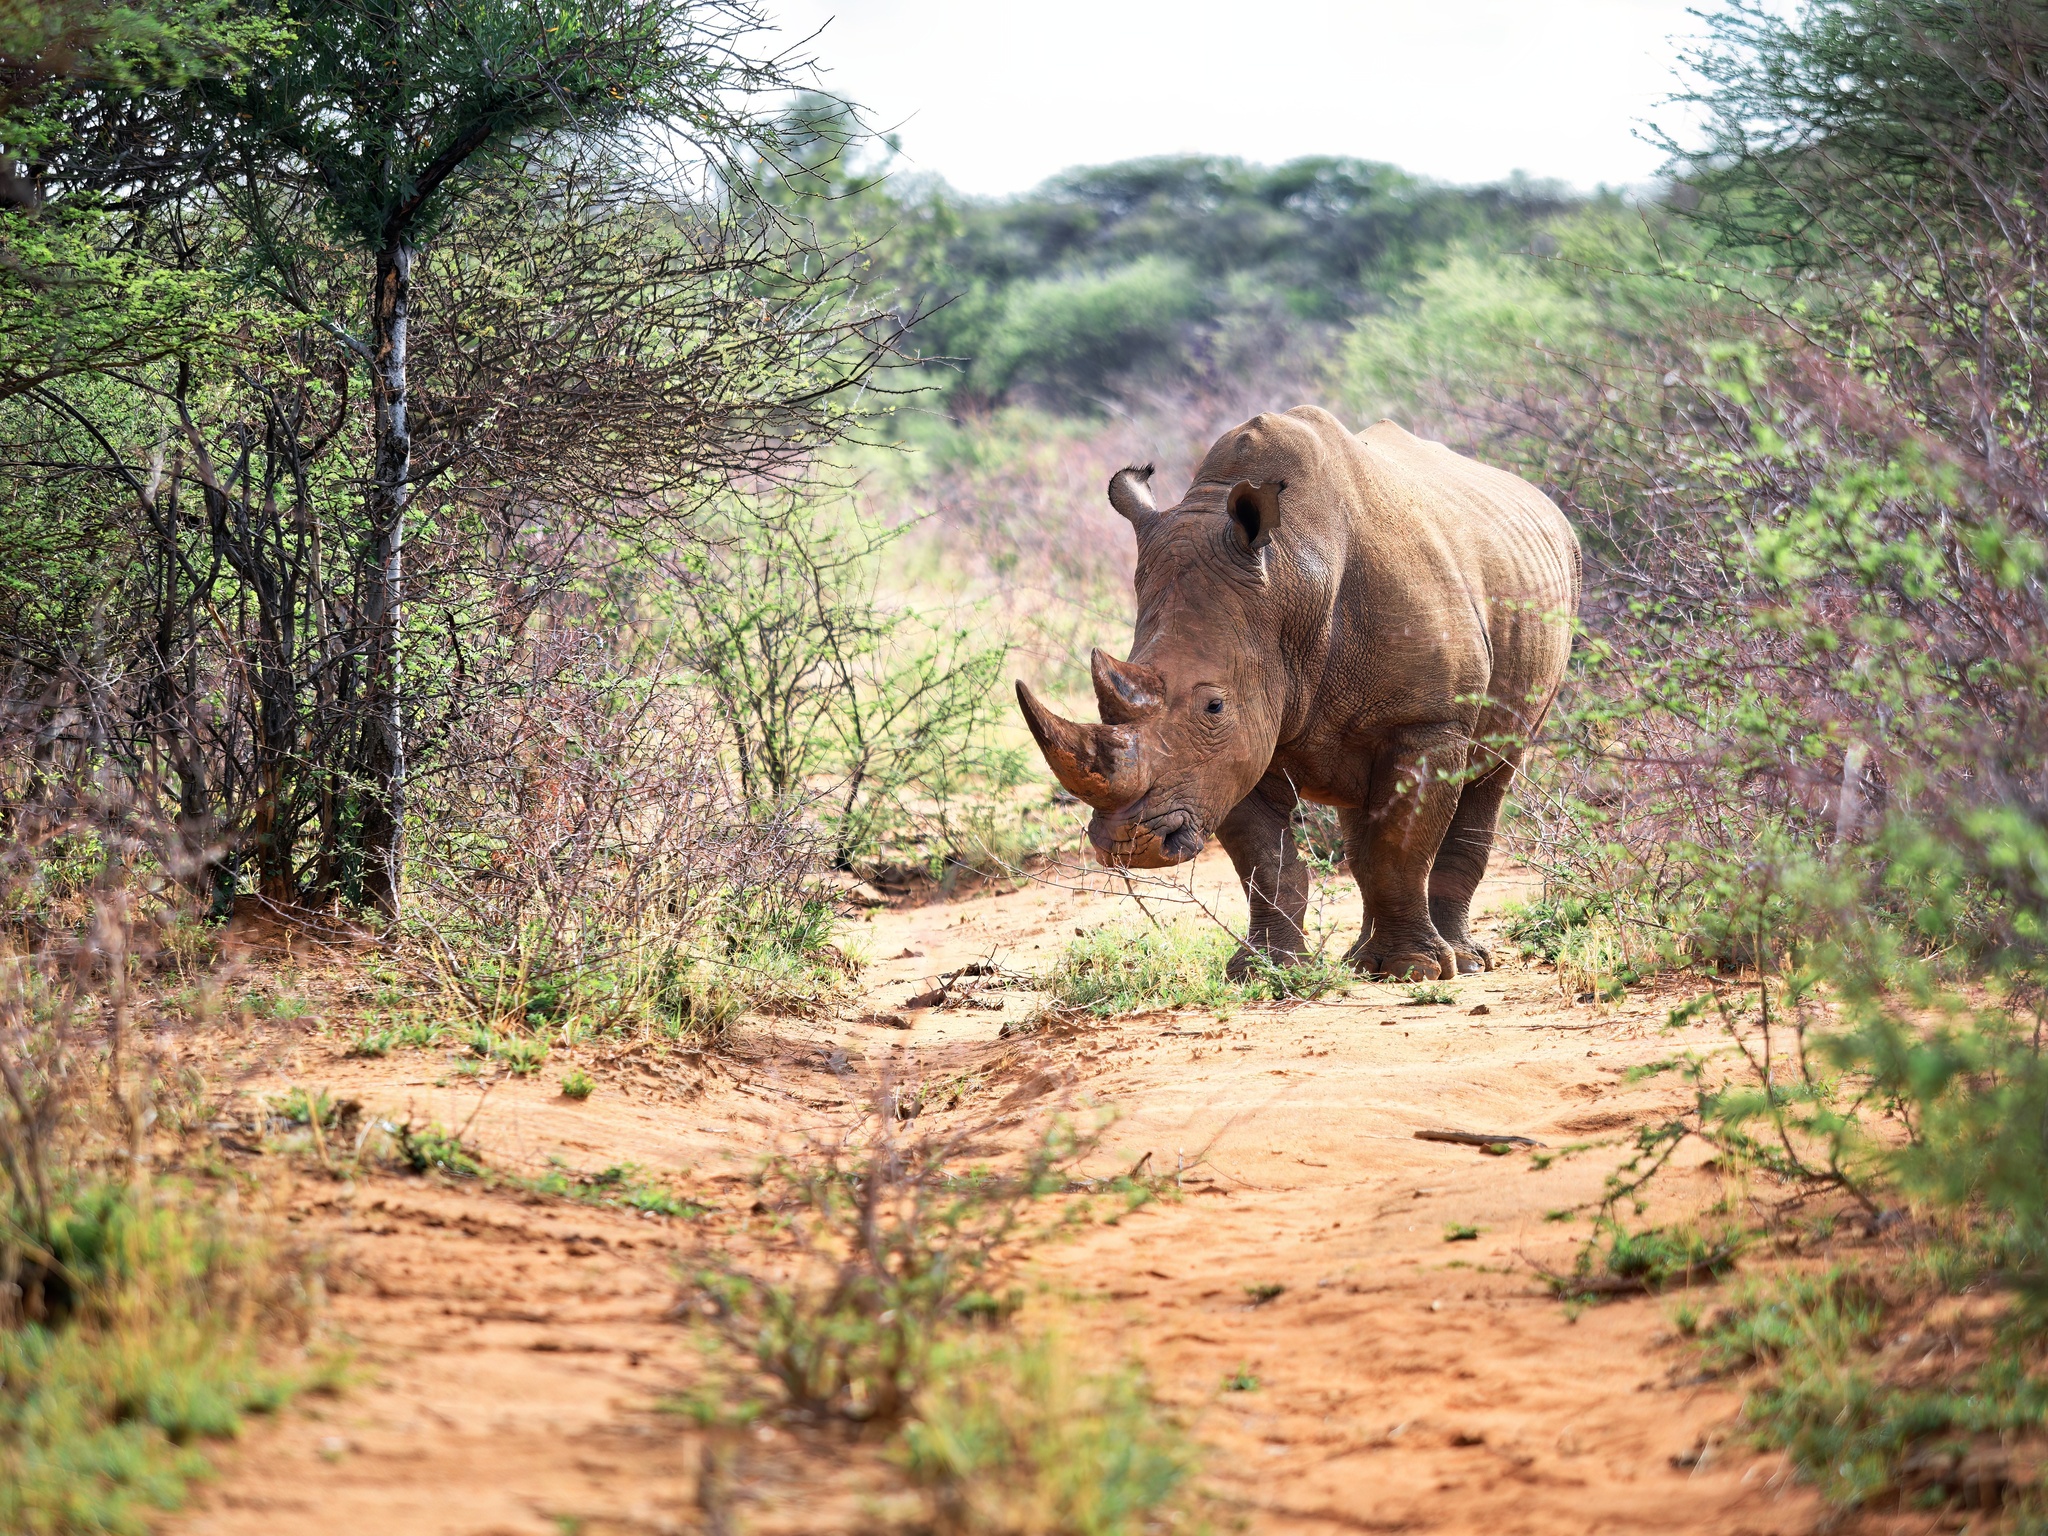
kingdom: Animalia
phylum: Chordata
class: Mammalia
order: Perissodactyla
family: Rhinocerotidae
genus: Ceratotherium
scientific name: Ceratotherium simum
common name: White rhinoceros
